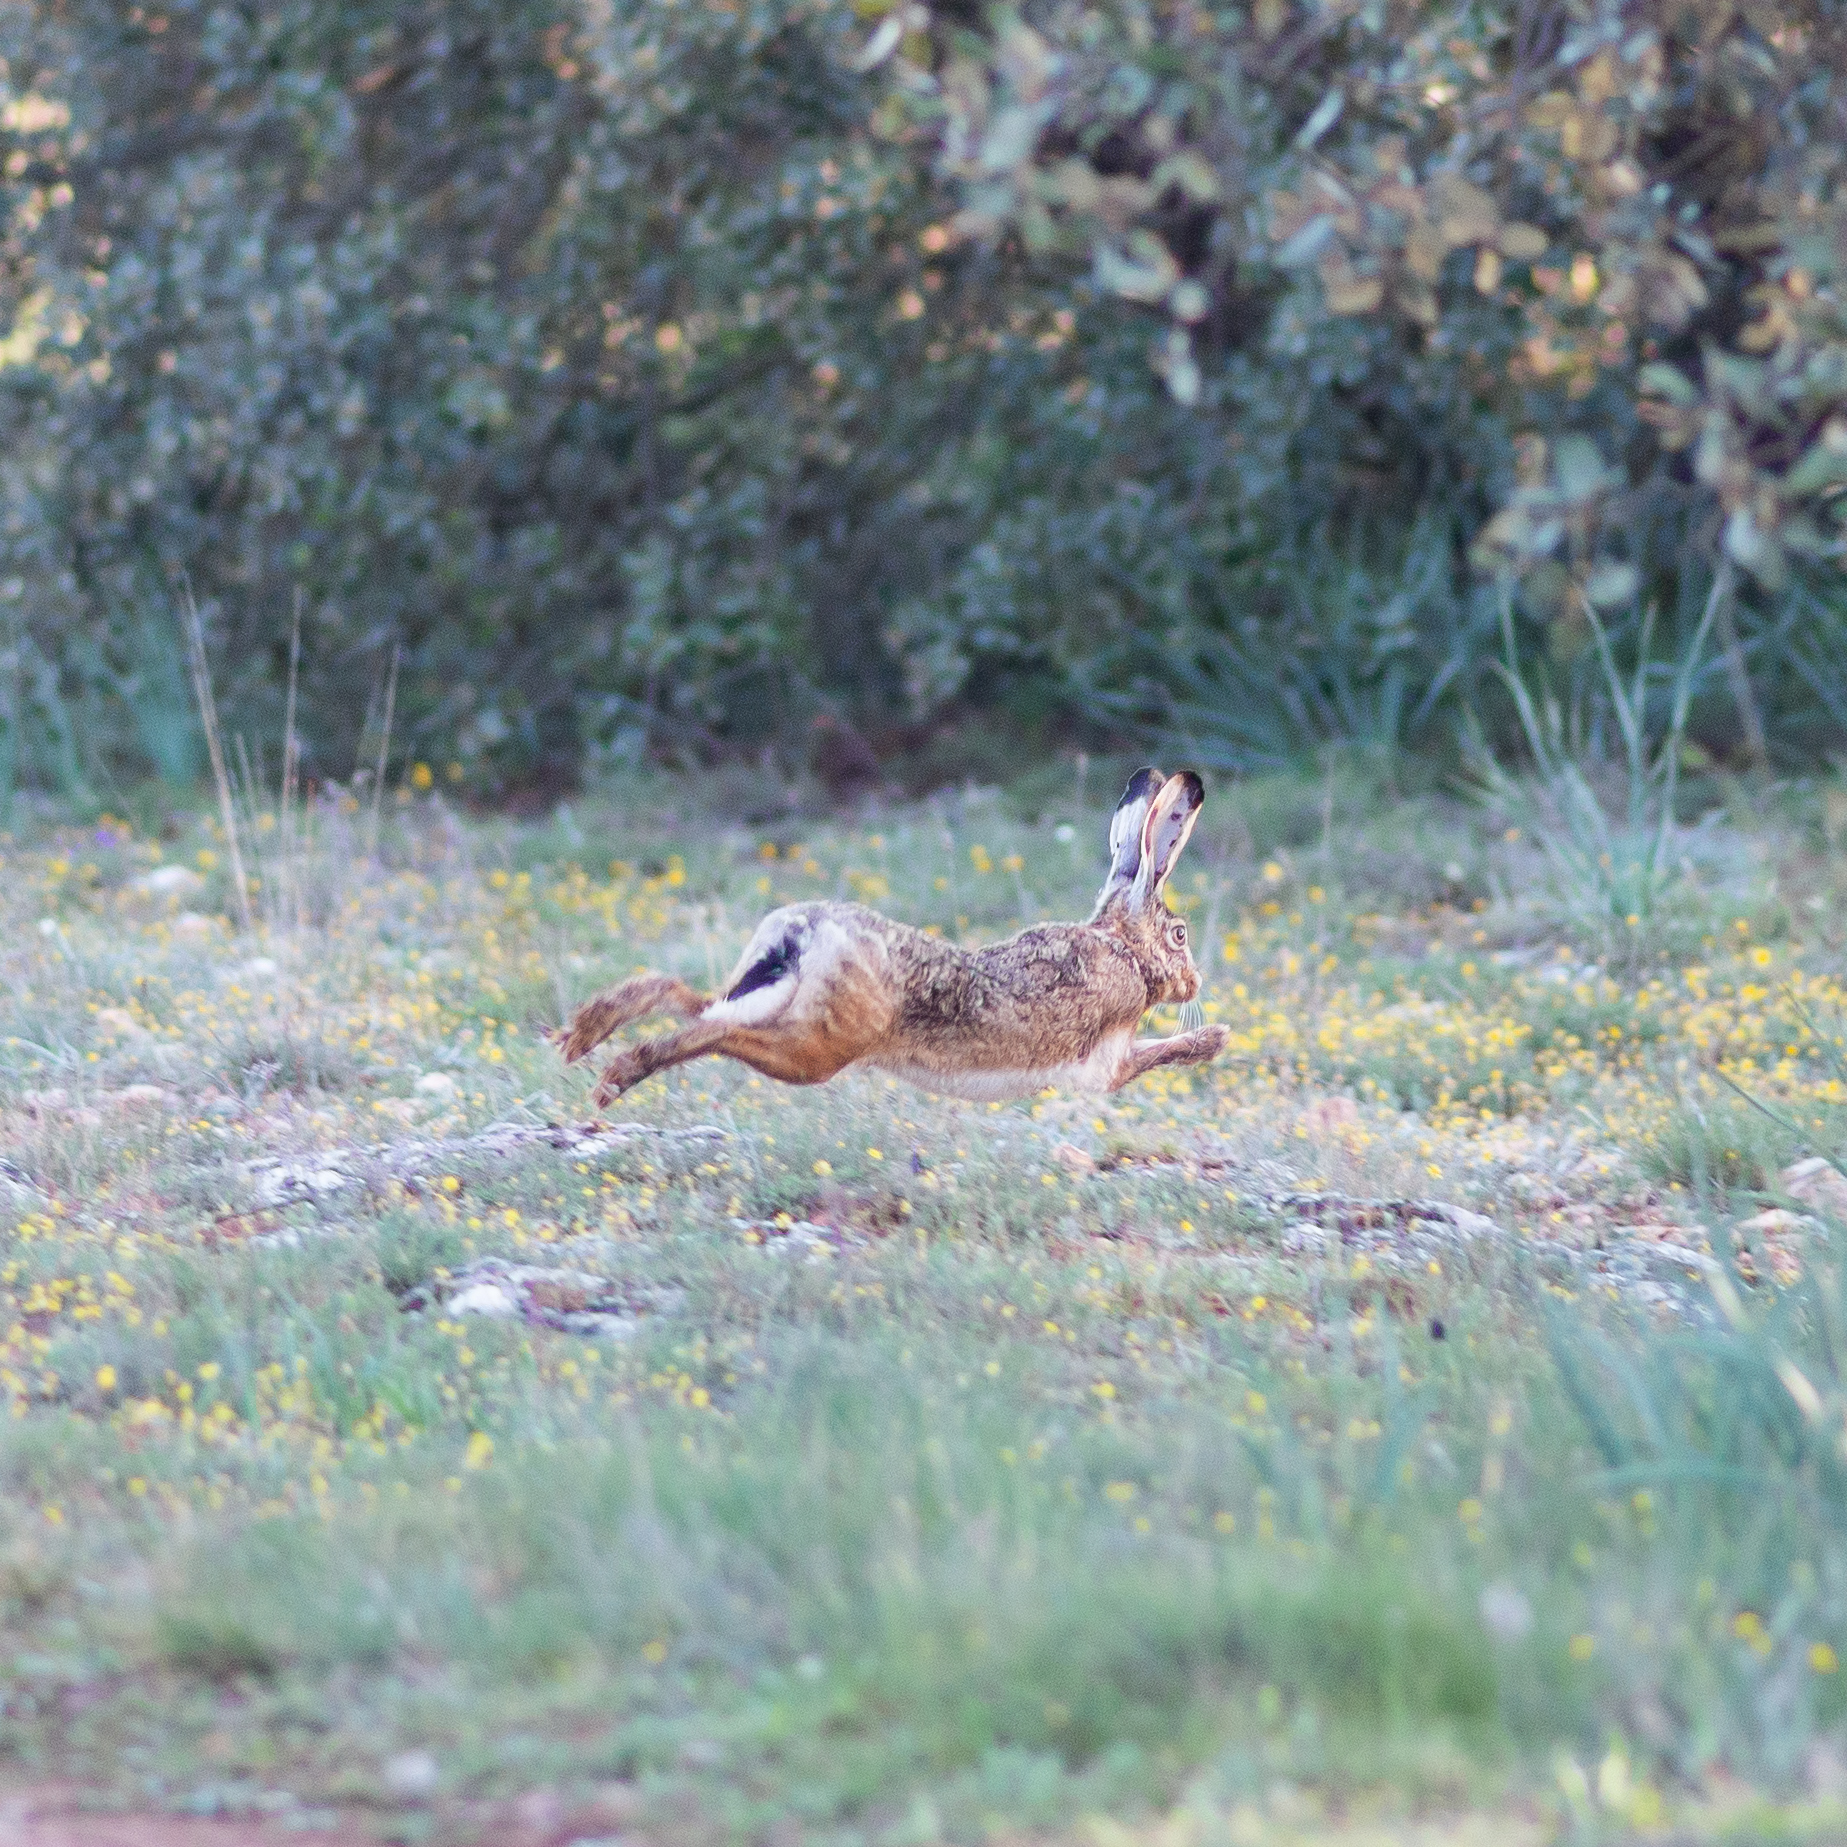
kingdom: Animalia
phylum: Chordata
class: Mammalia
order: Lagomorpha
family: Leporidae
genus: Lepus
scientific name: Lepus granatensis
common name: Granada hare
